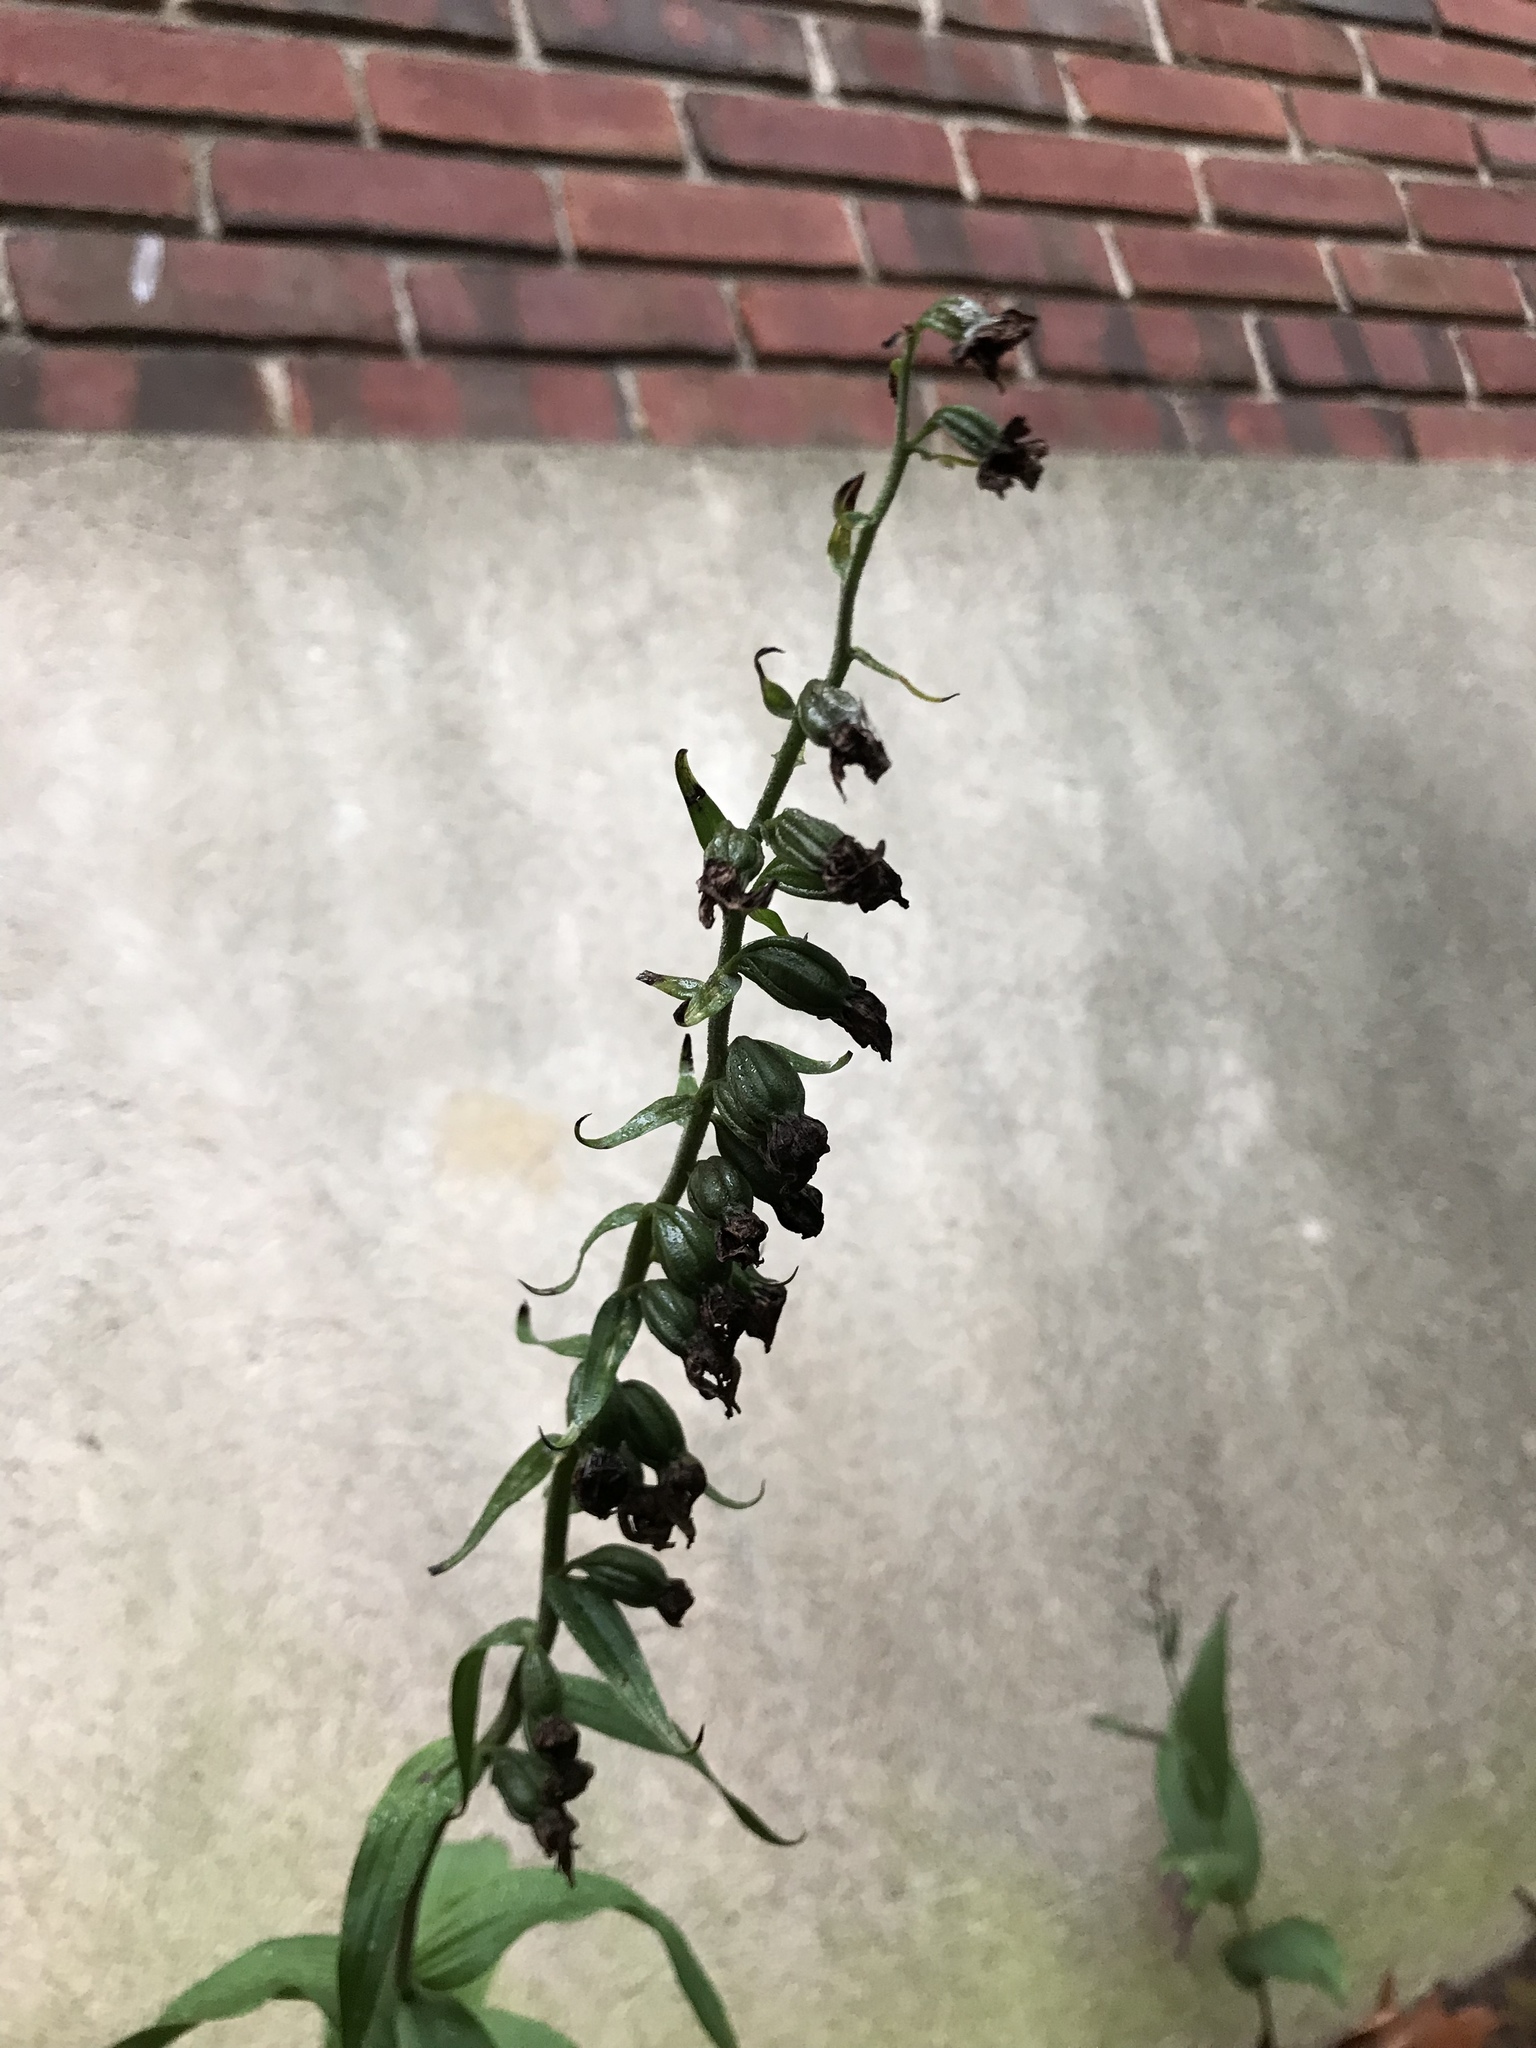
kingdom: Plantae
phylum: Tracheophyta
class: Liliopsida
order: Asparagales
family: Orchidaceae
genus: Epipactis
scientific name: Epipactis helleborine
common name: Broad-leaved helleborine
